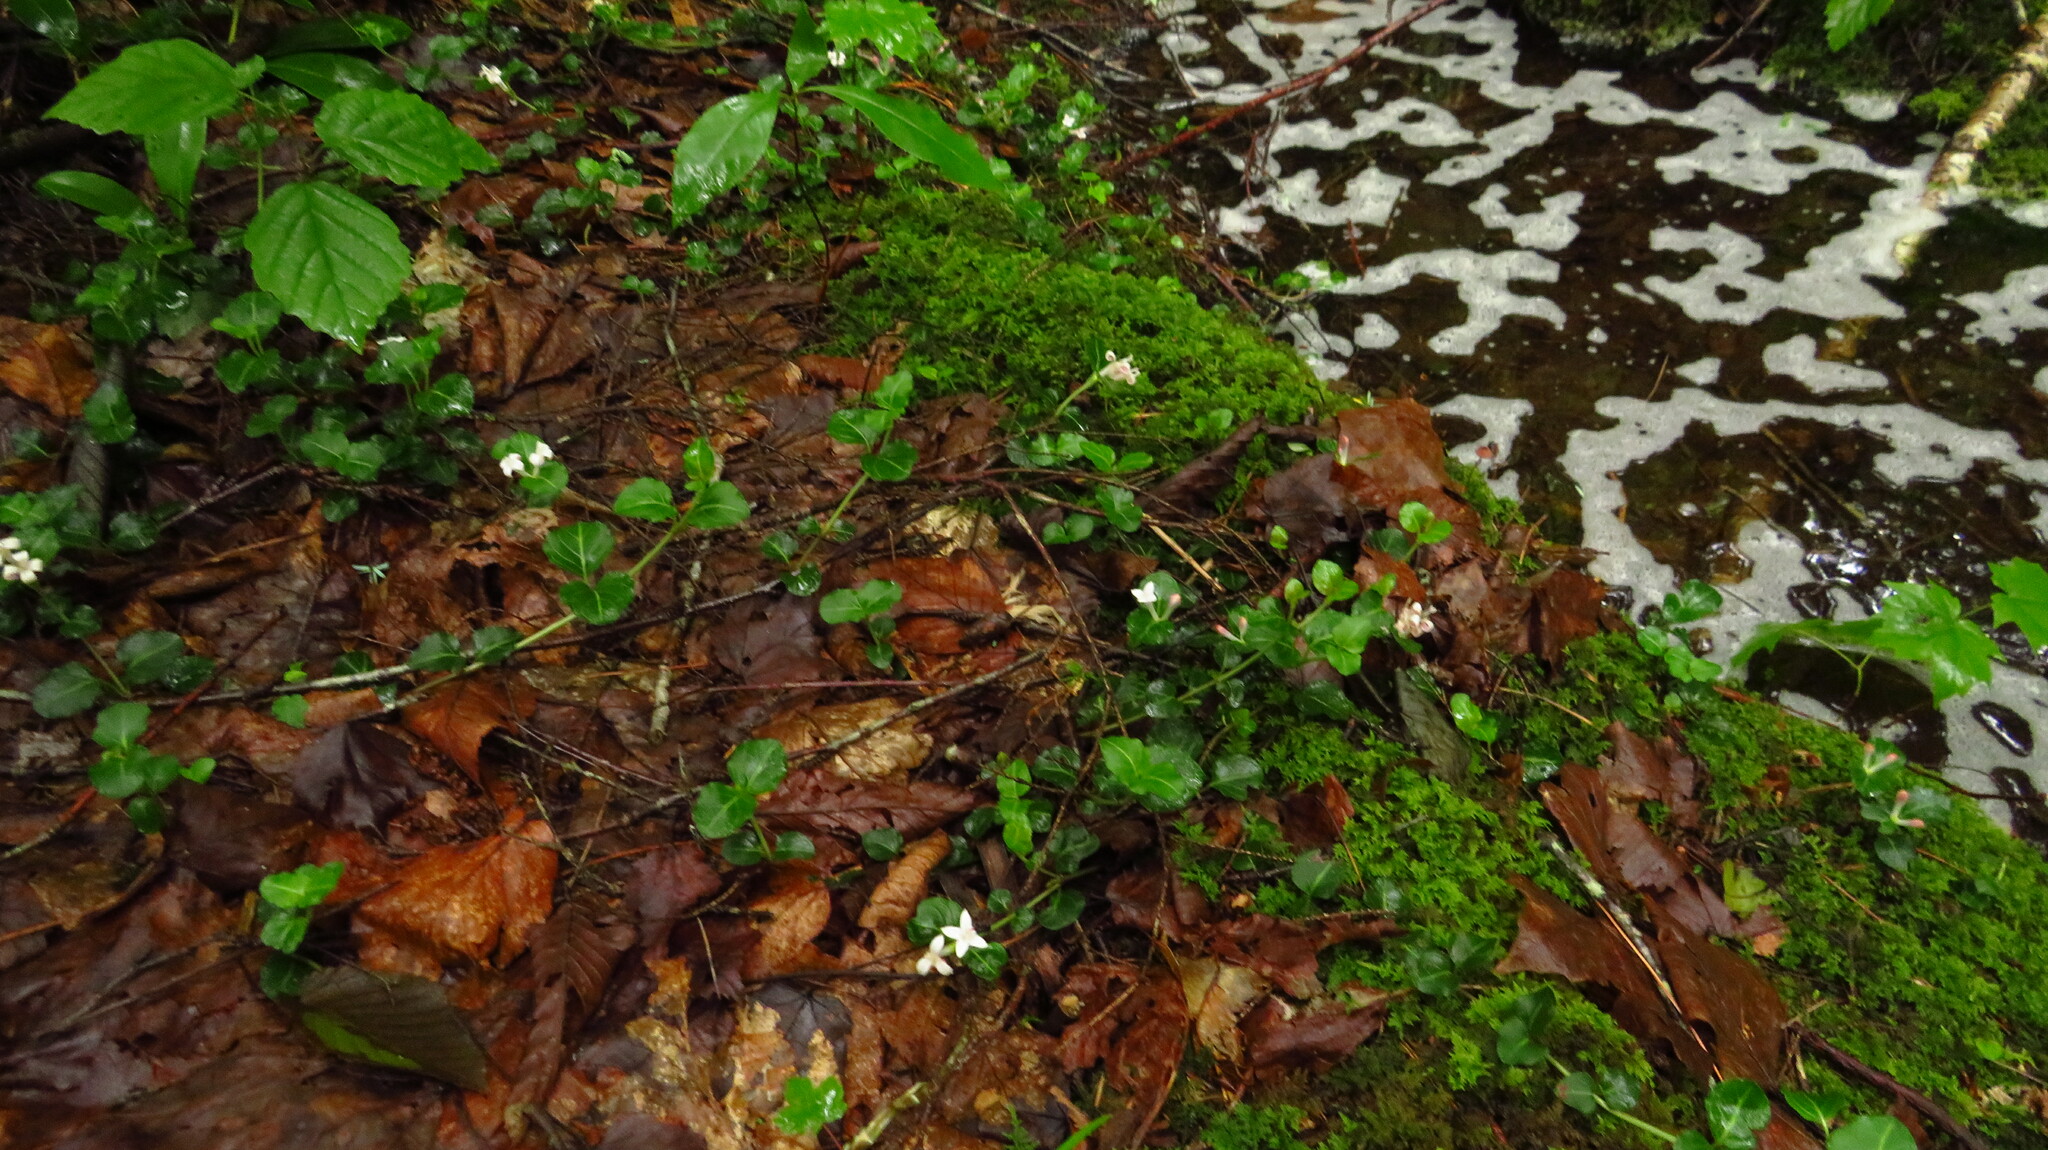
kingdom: Plantae
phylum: Tracheophyta
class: Magnoliopsida
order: Gentianales
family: Rubiaceae
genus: Mitchella
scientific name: Mitchella repens
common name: Partridge-berry
